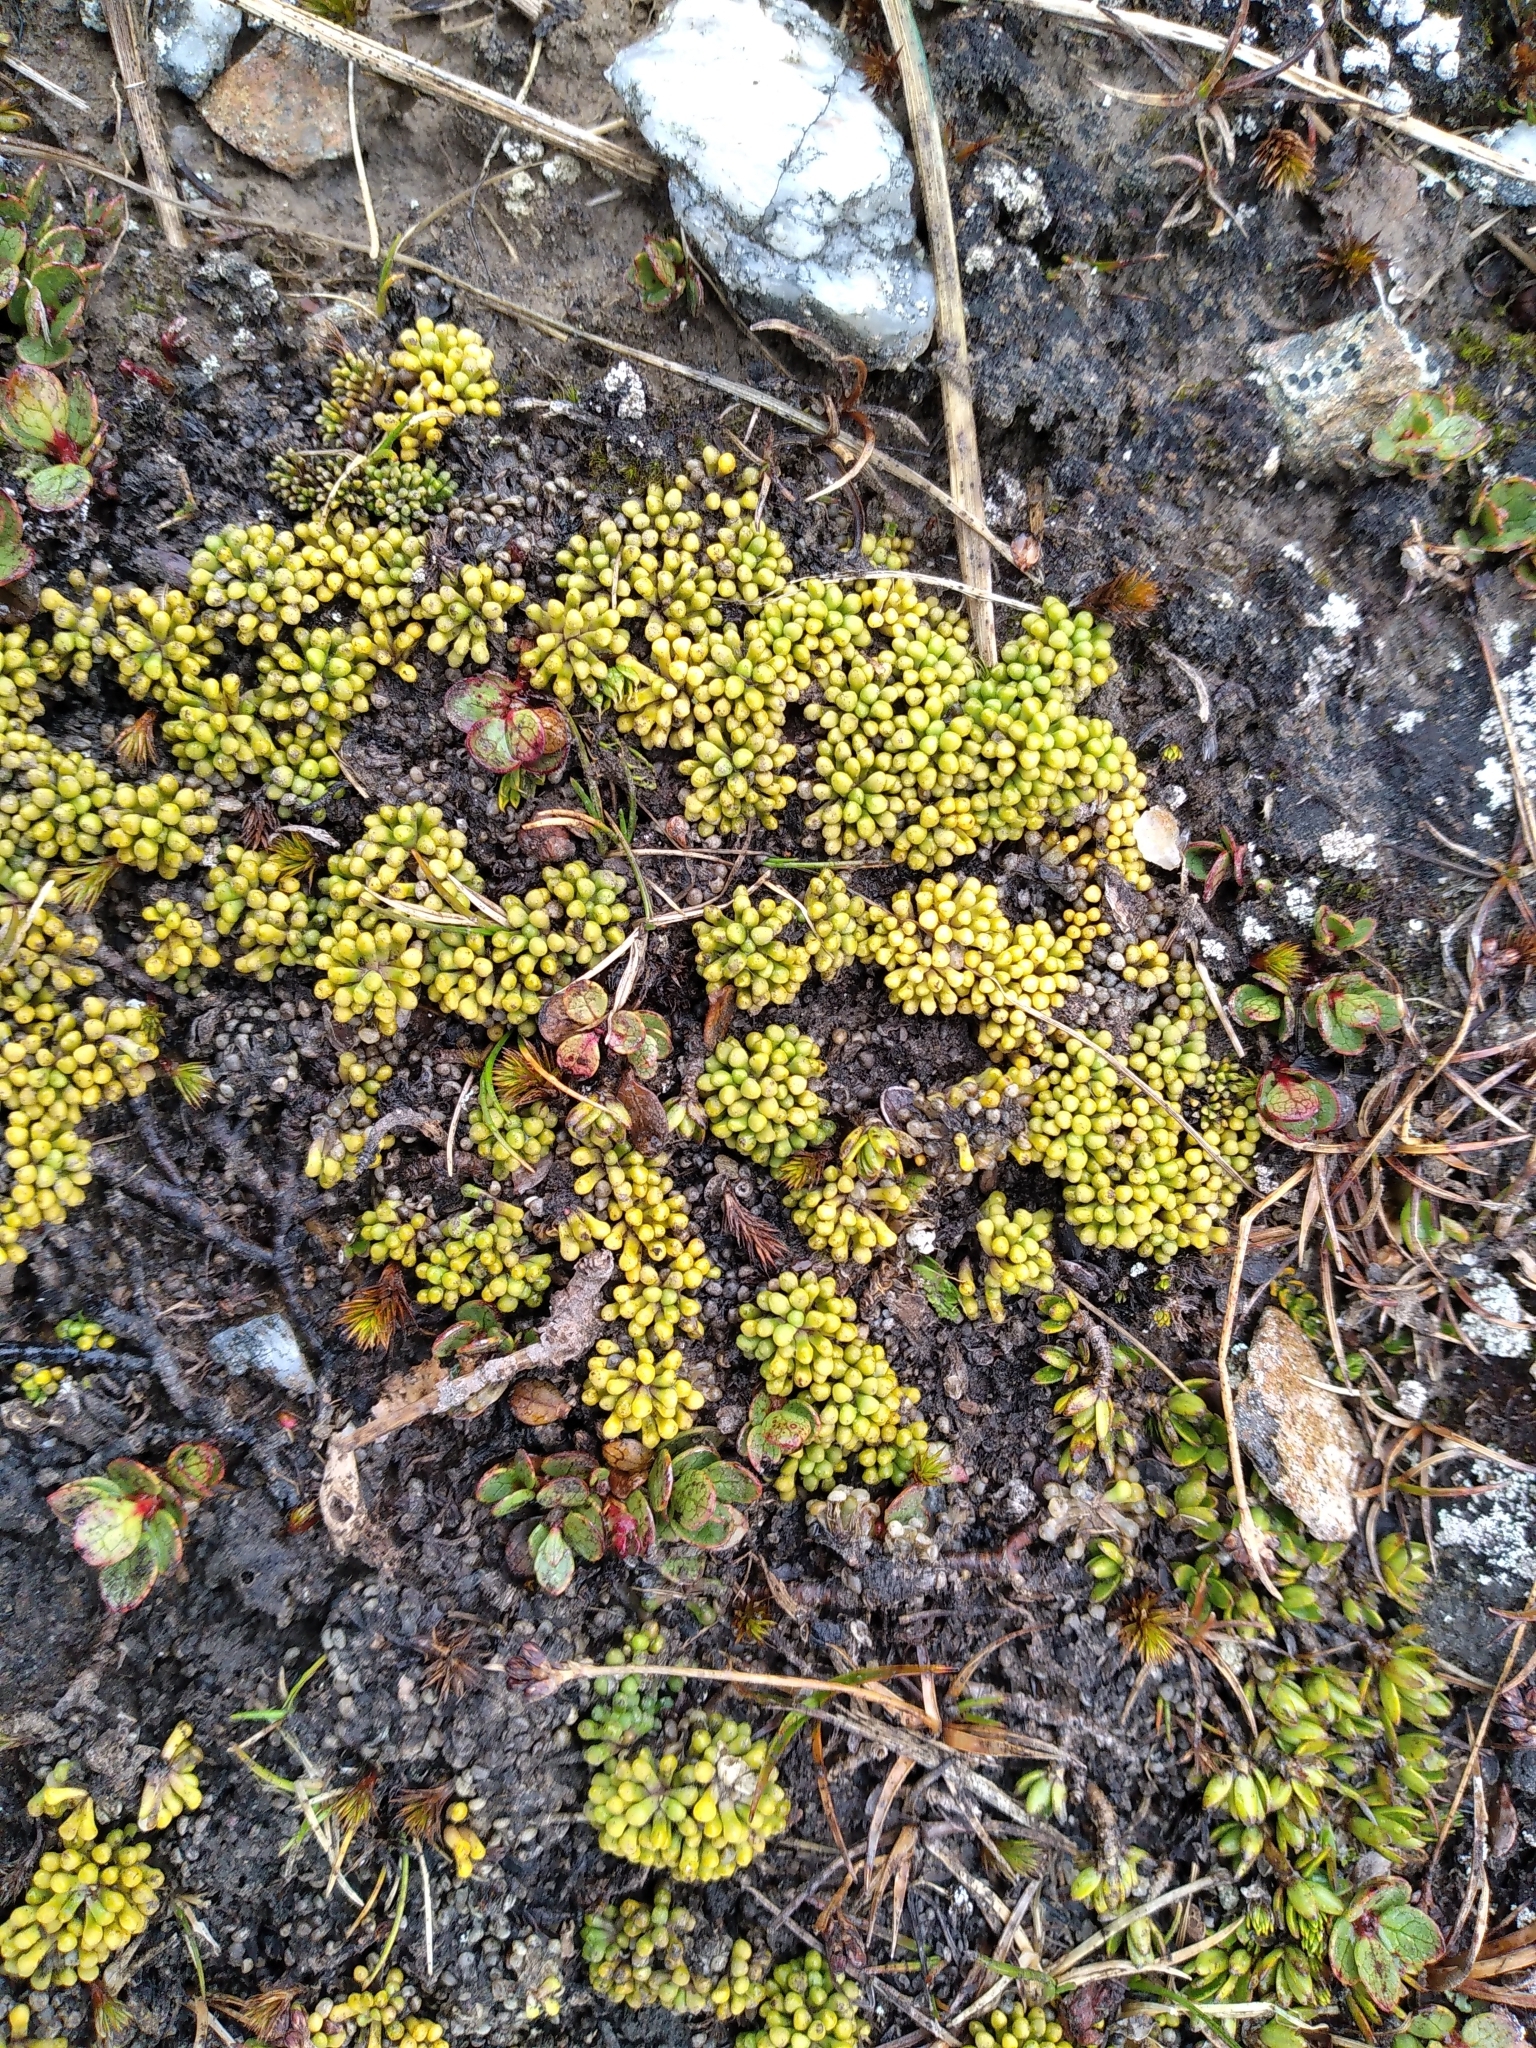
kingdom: Plantae
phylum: Tracheophyta
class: Magnoliopsida
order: Asterales
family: Stylidiaceae
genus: Phyllachne
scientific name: Phyllachne rubra
